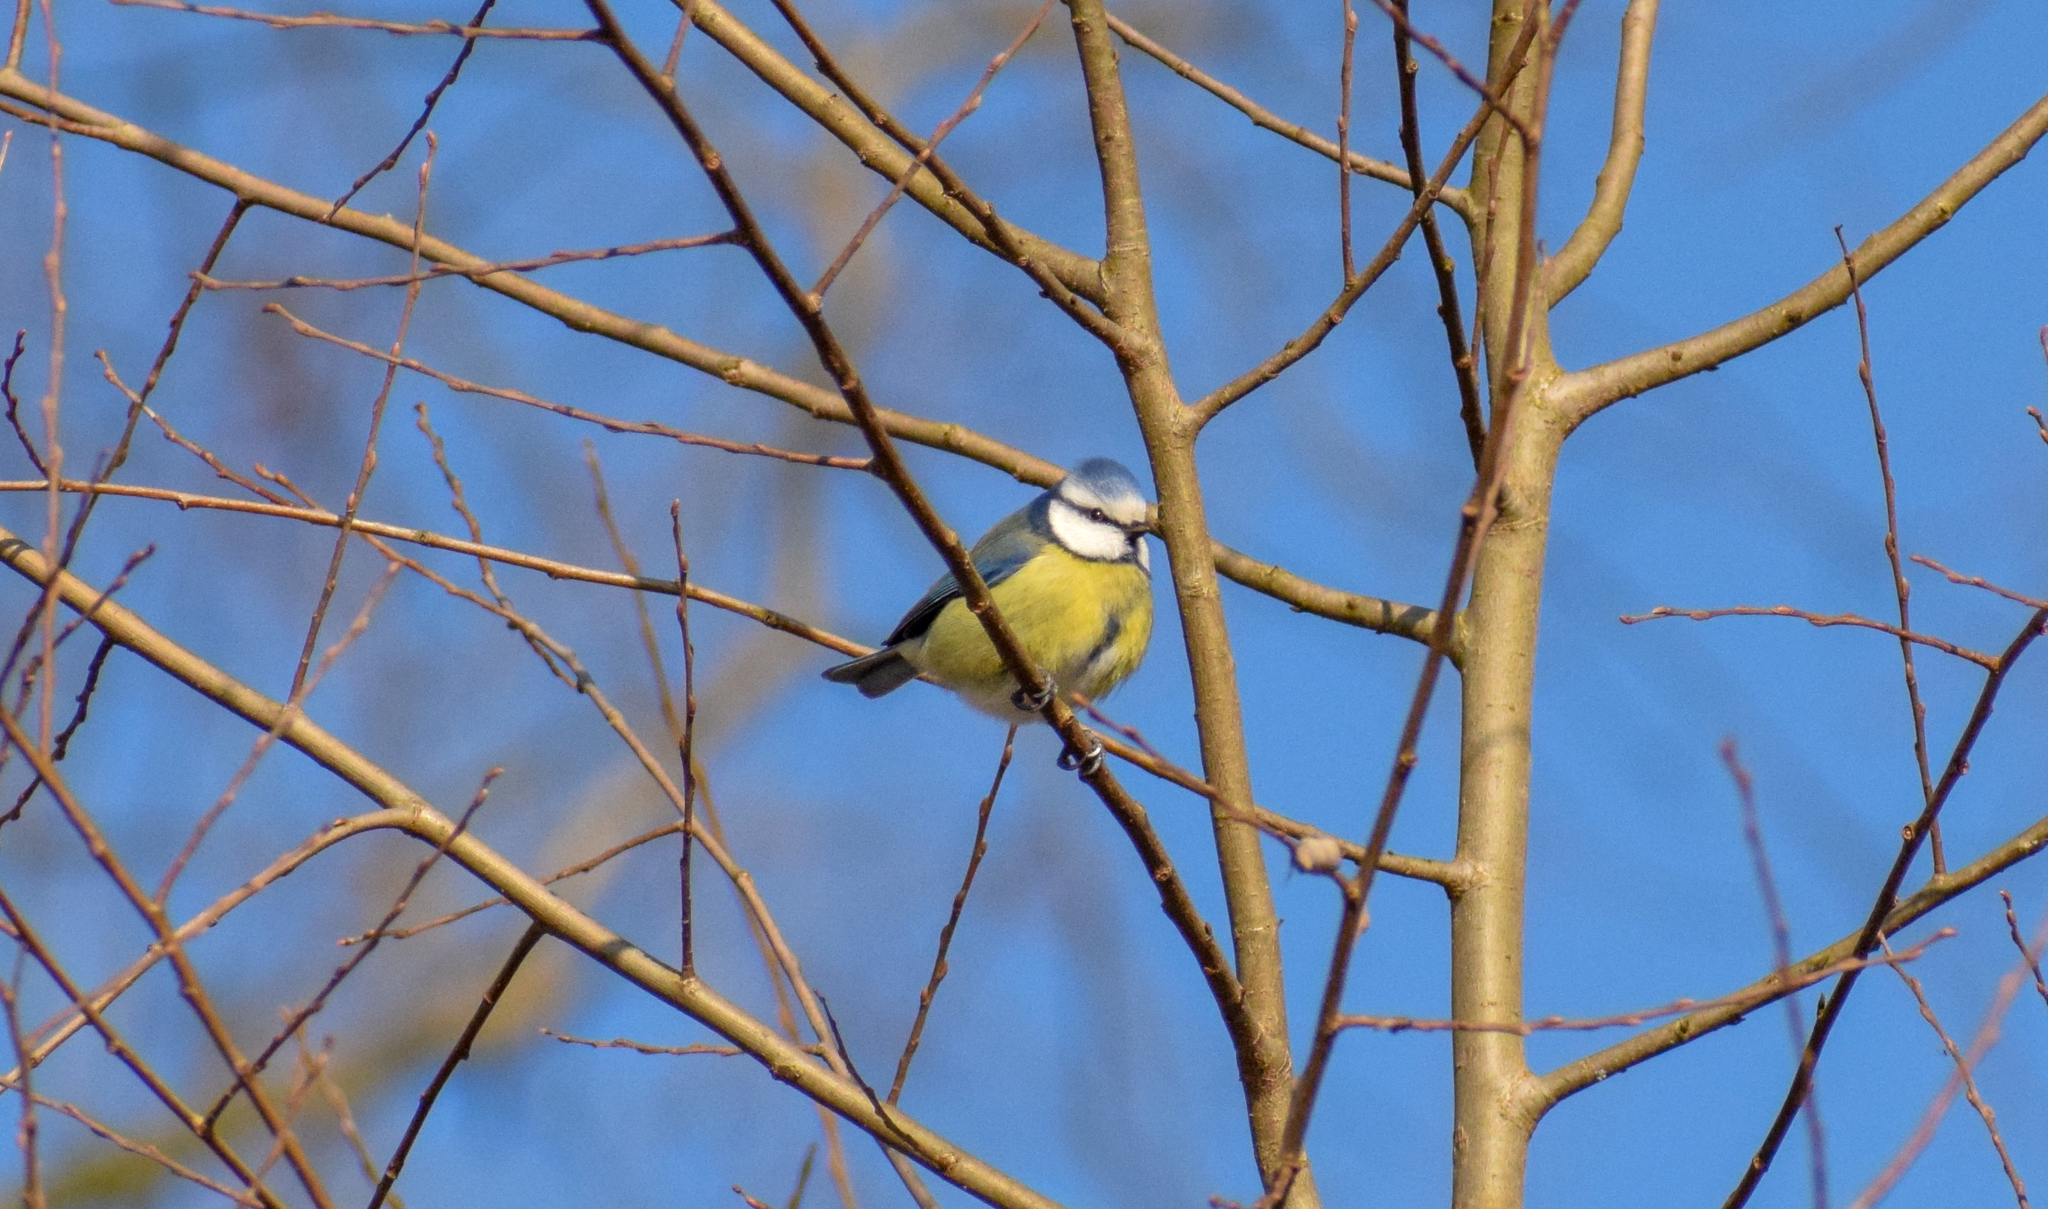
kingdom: Animalia
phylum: Chordata
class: Aves
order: Passeriformes
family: Paridae
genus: Cyanistes
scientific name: Cyanistes caeruleus
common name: Eurasian blue tit
